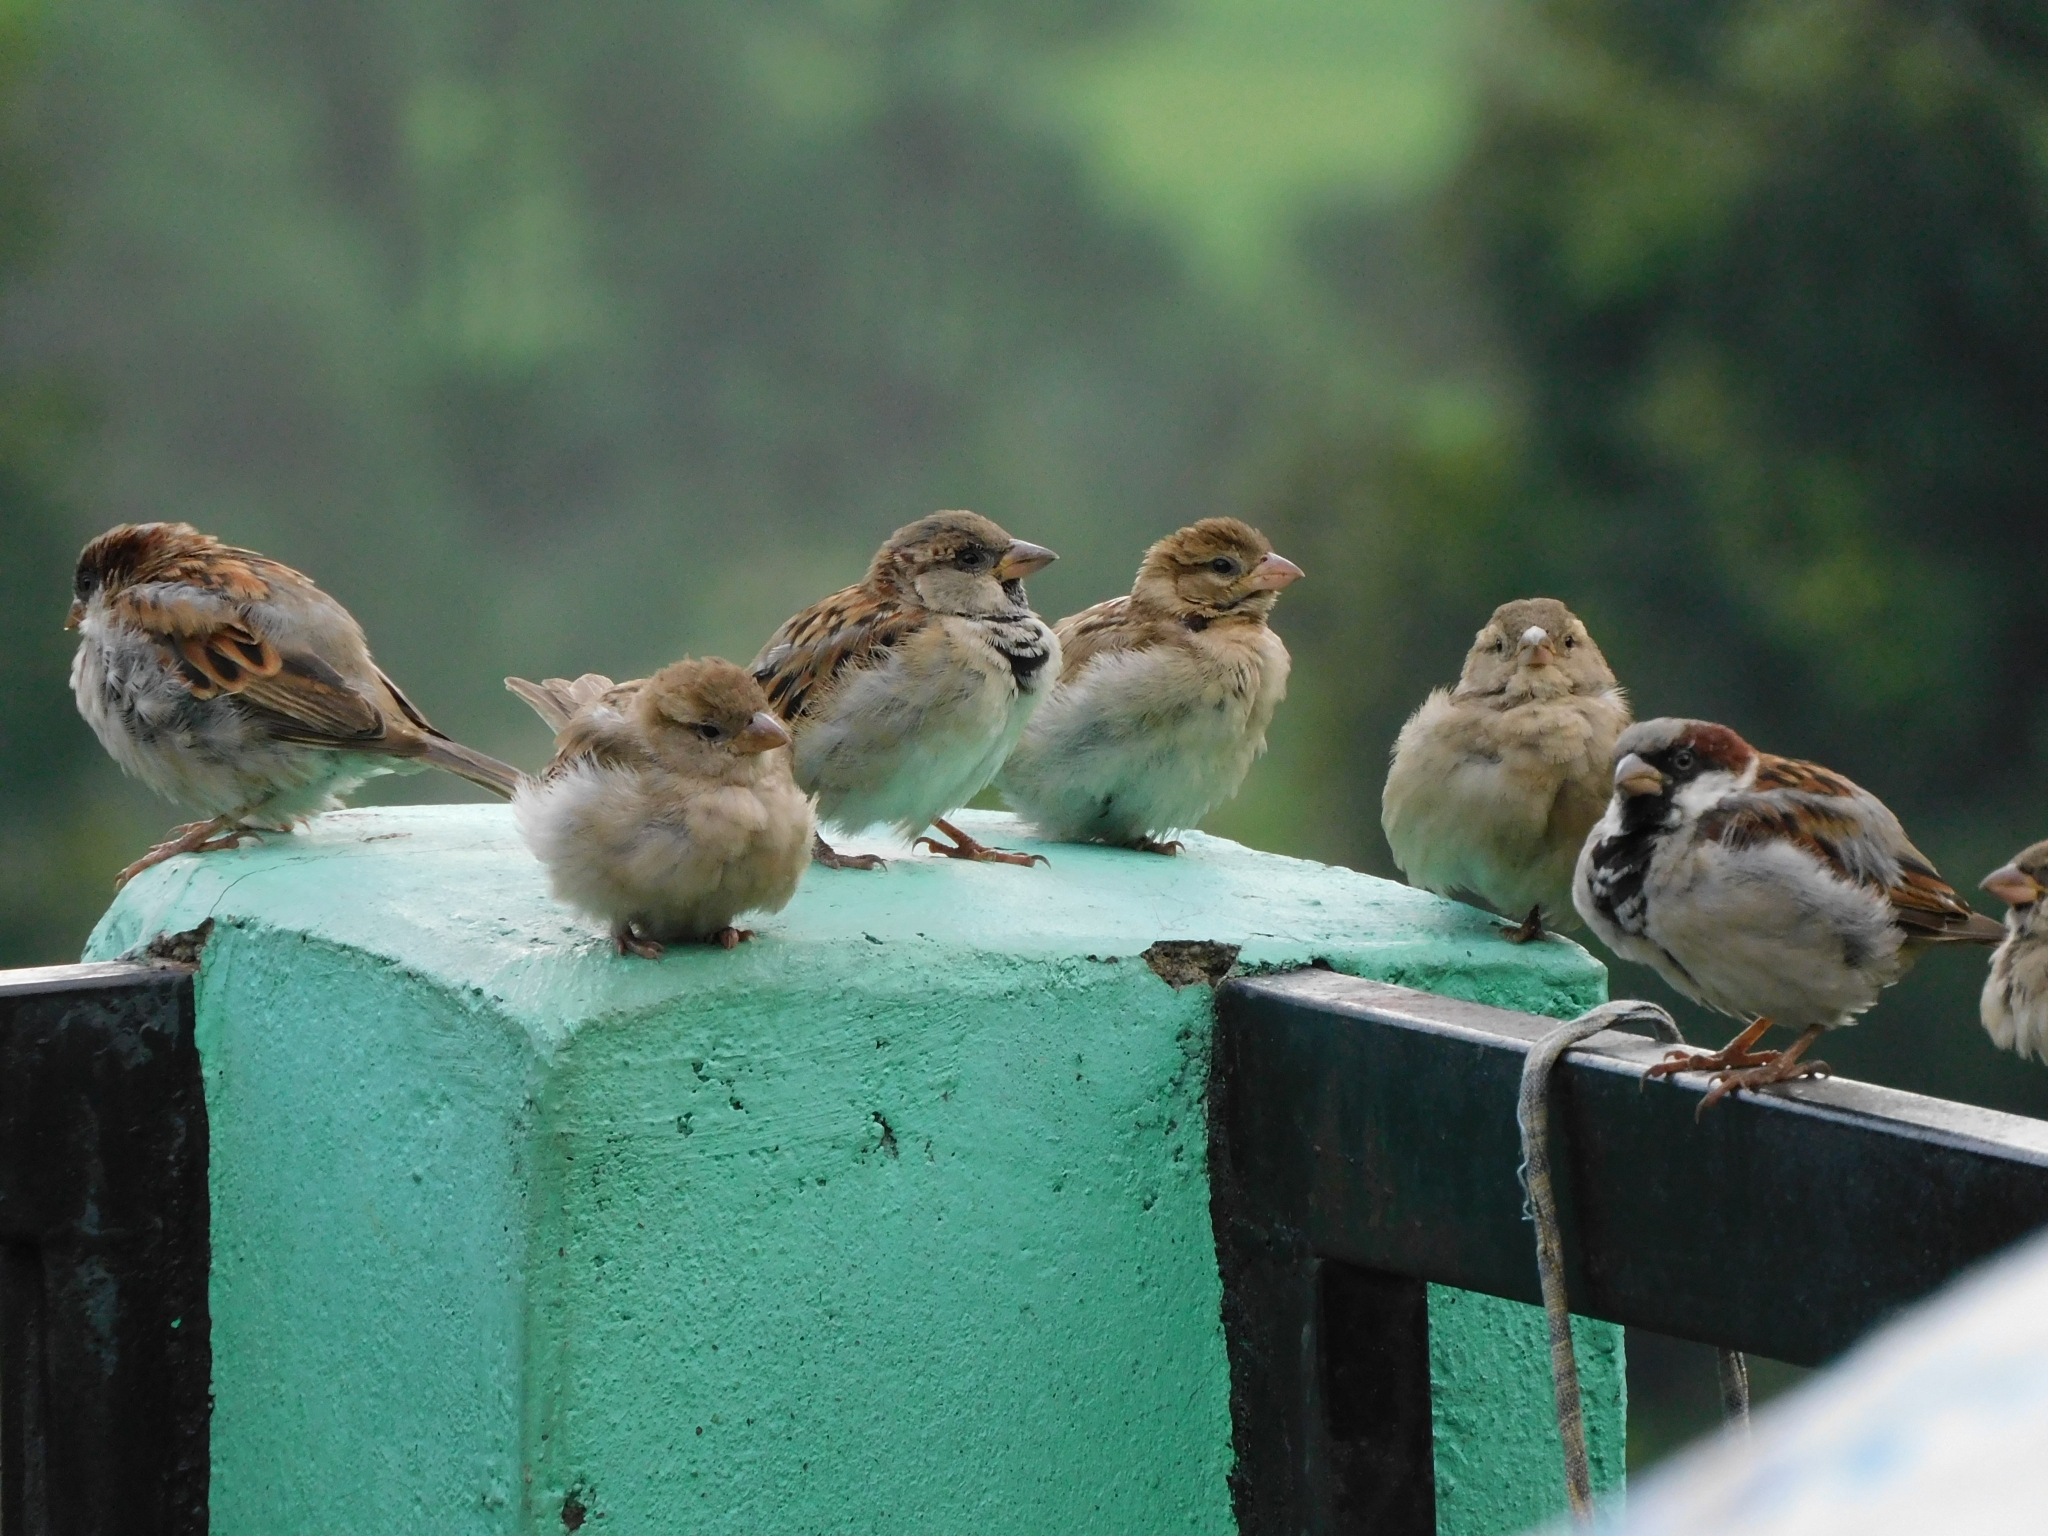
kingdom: Animalia
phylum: Chordata
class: Aves
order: Passeriformes
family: Passeridae
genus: Passer
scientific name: Passer domesticus
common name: House sparrow
